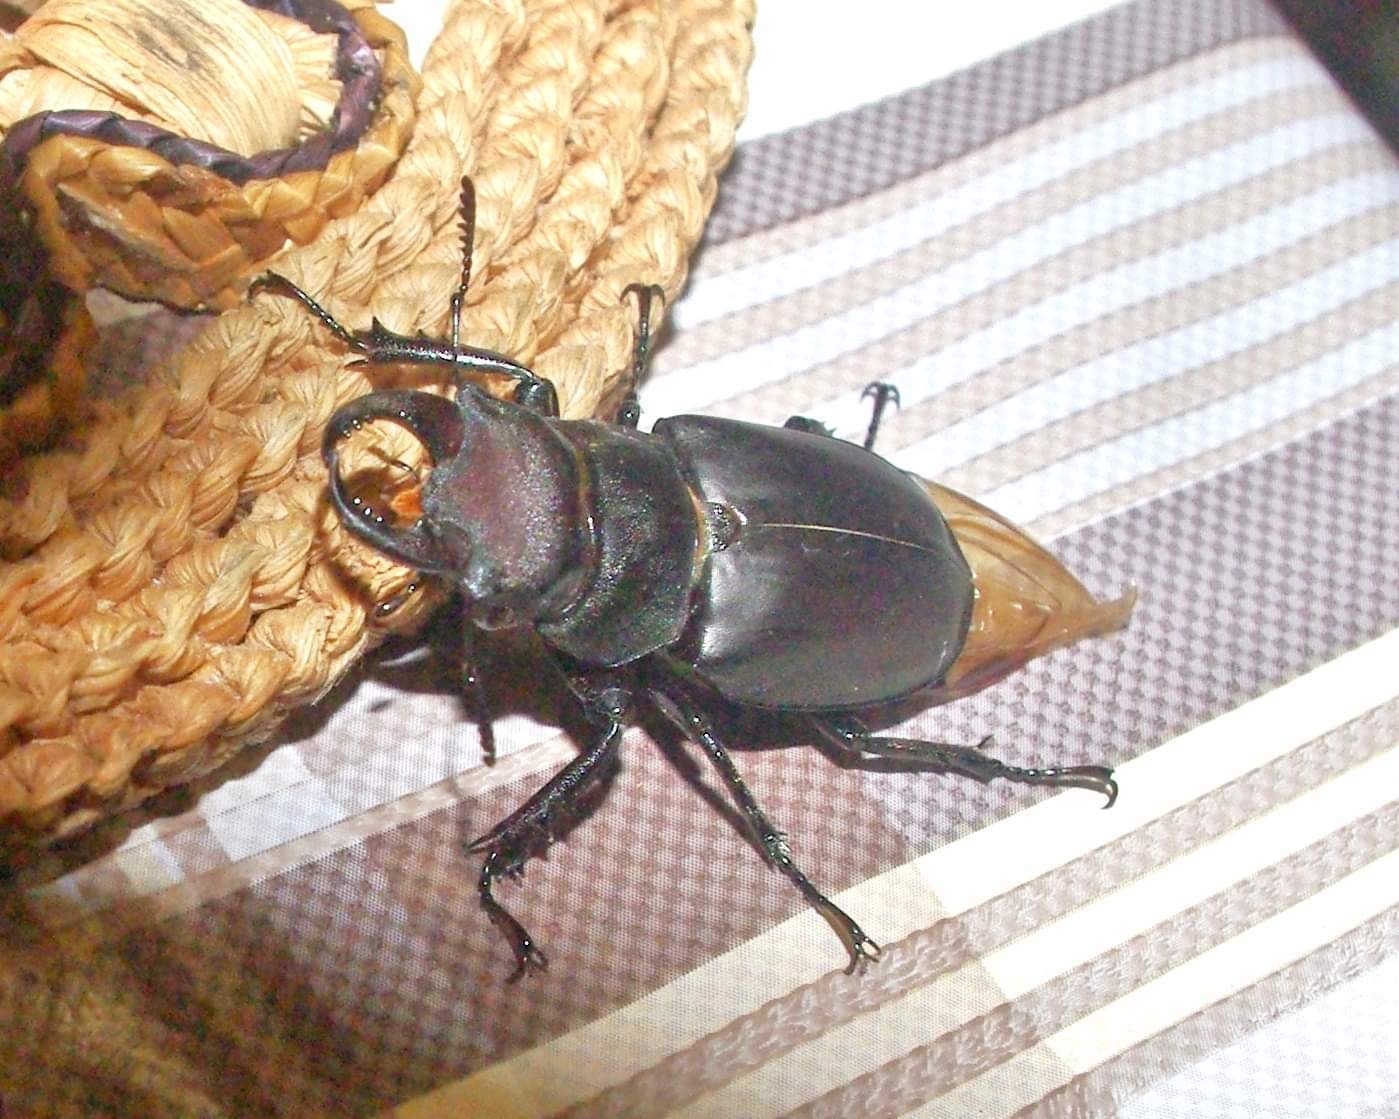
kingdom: Animalia
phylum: Arthropoda
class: Insecta
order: Coleoptera
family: Lucanidae
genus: Lucanus
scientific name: Lucanus tetraodon
